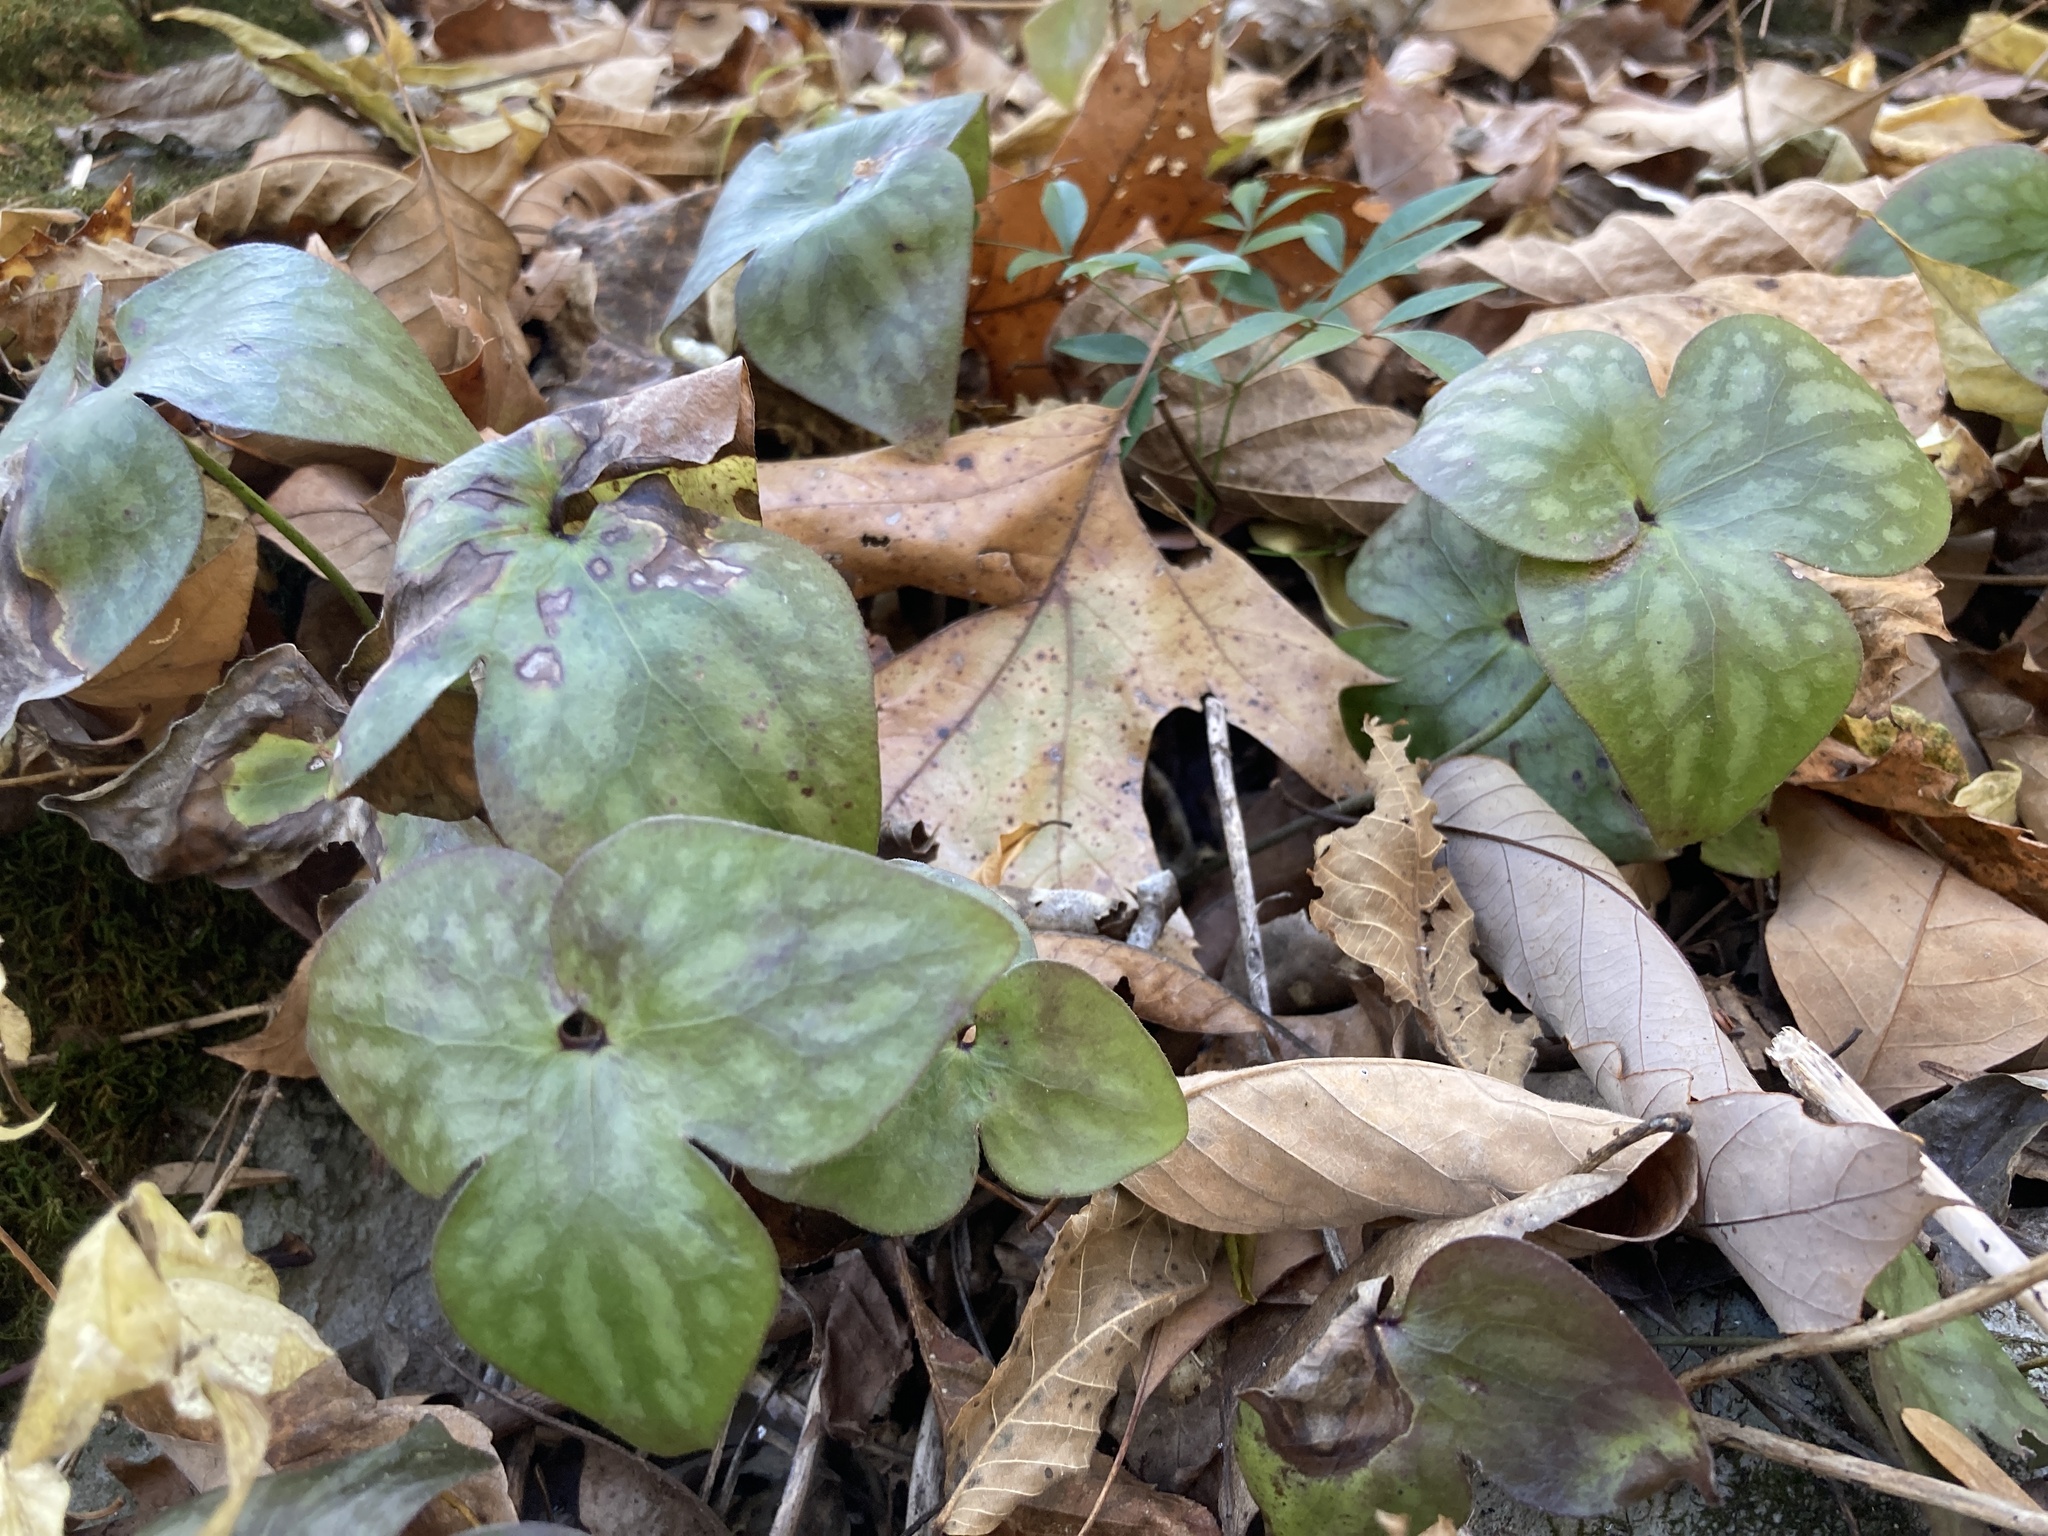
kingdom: Plantae
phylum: Tracheophyta
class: Magnoliopsida
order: Ranunculales
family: Ranunculaceae
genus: Hepatica
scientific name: Hepatica acutiloba
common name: Sharp-lobed hepatica
